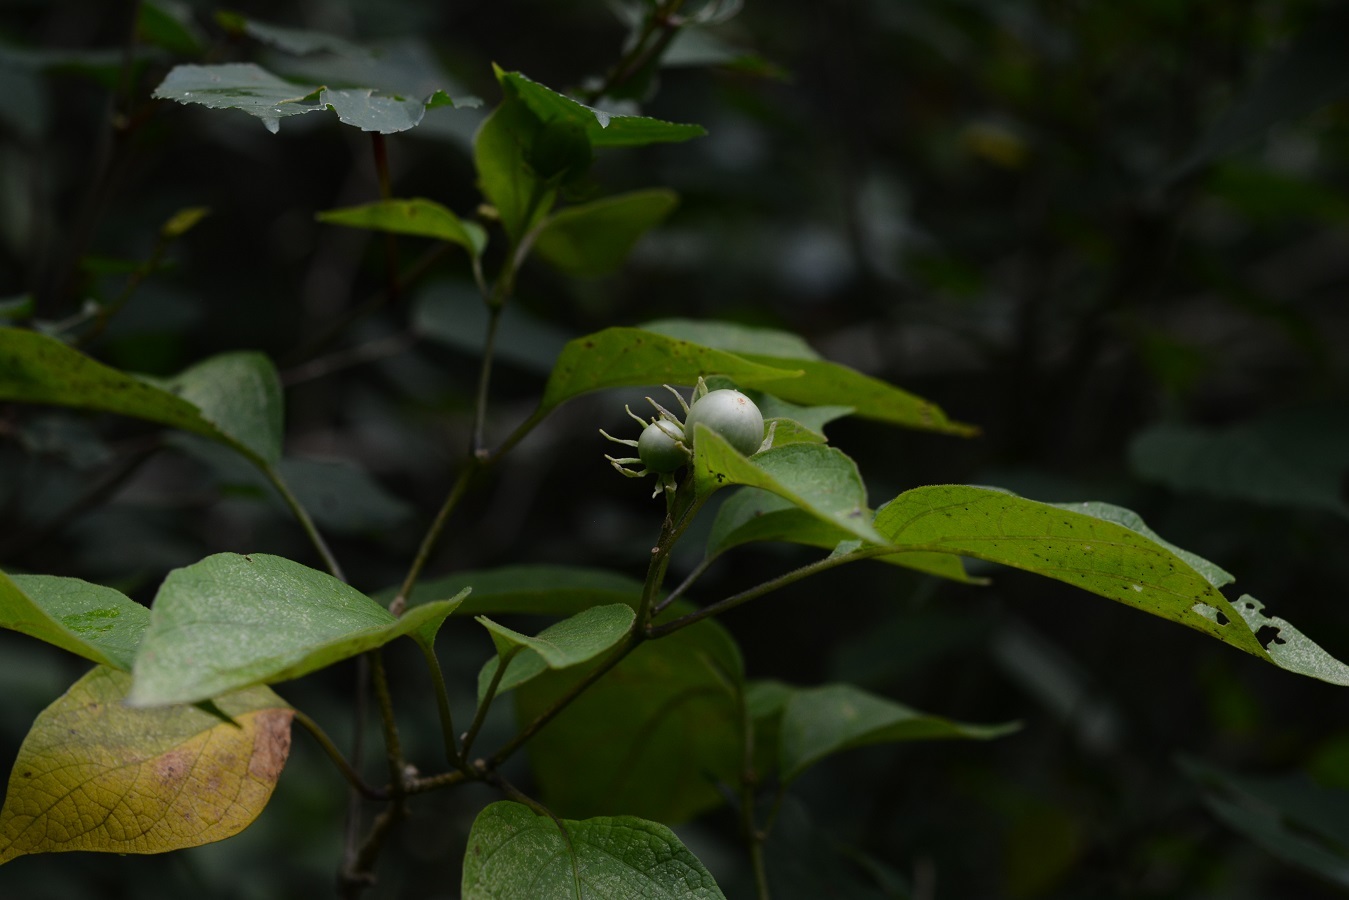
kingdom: Plantae
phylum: Tracheophyta
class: Magnoliopsida
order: Solanales
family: Solanaceae
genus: Lycianthes
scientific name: Lycianthes scandens
